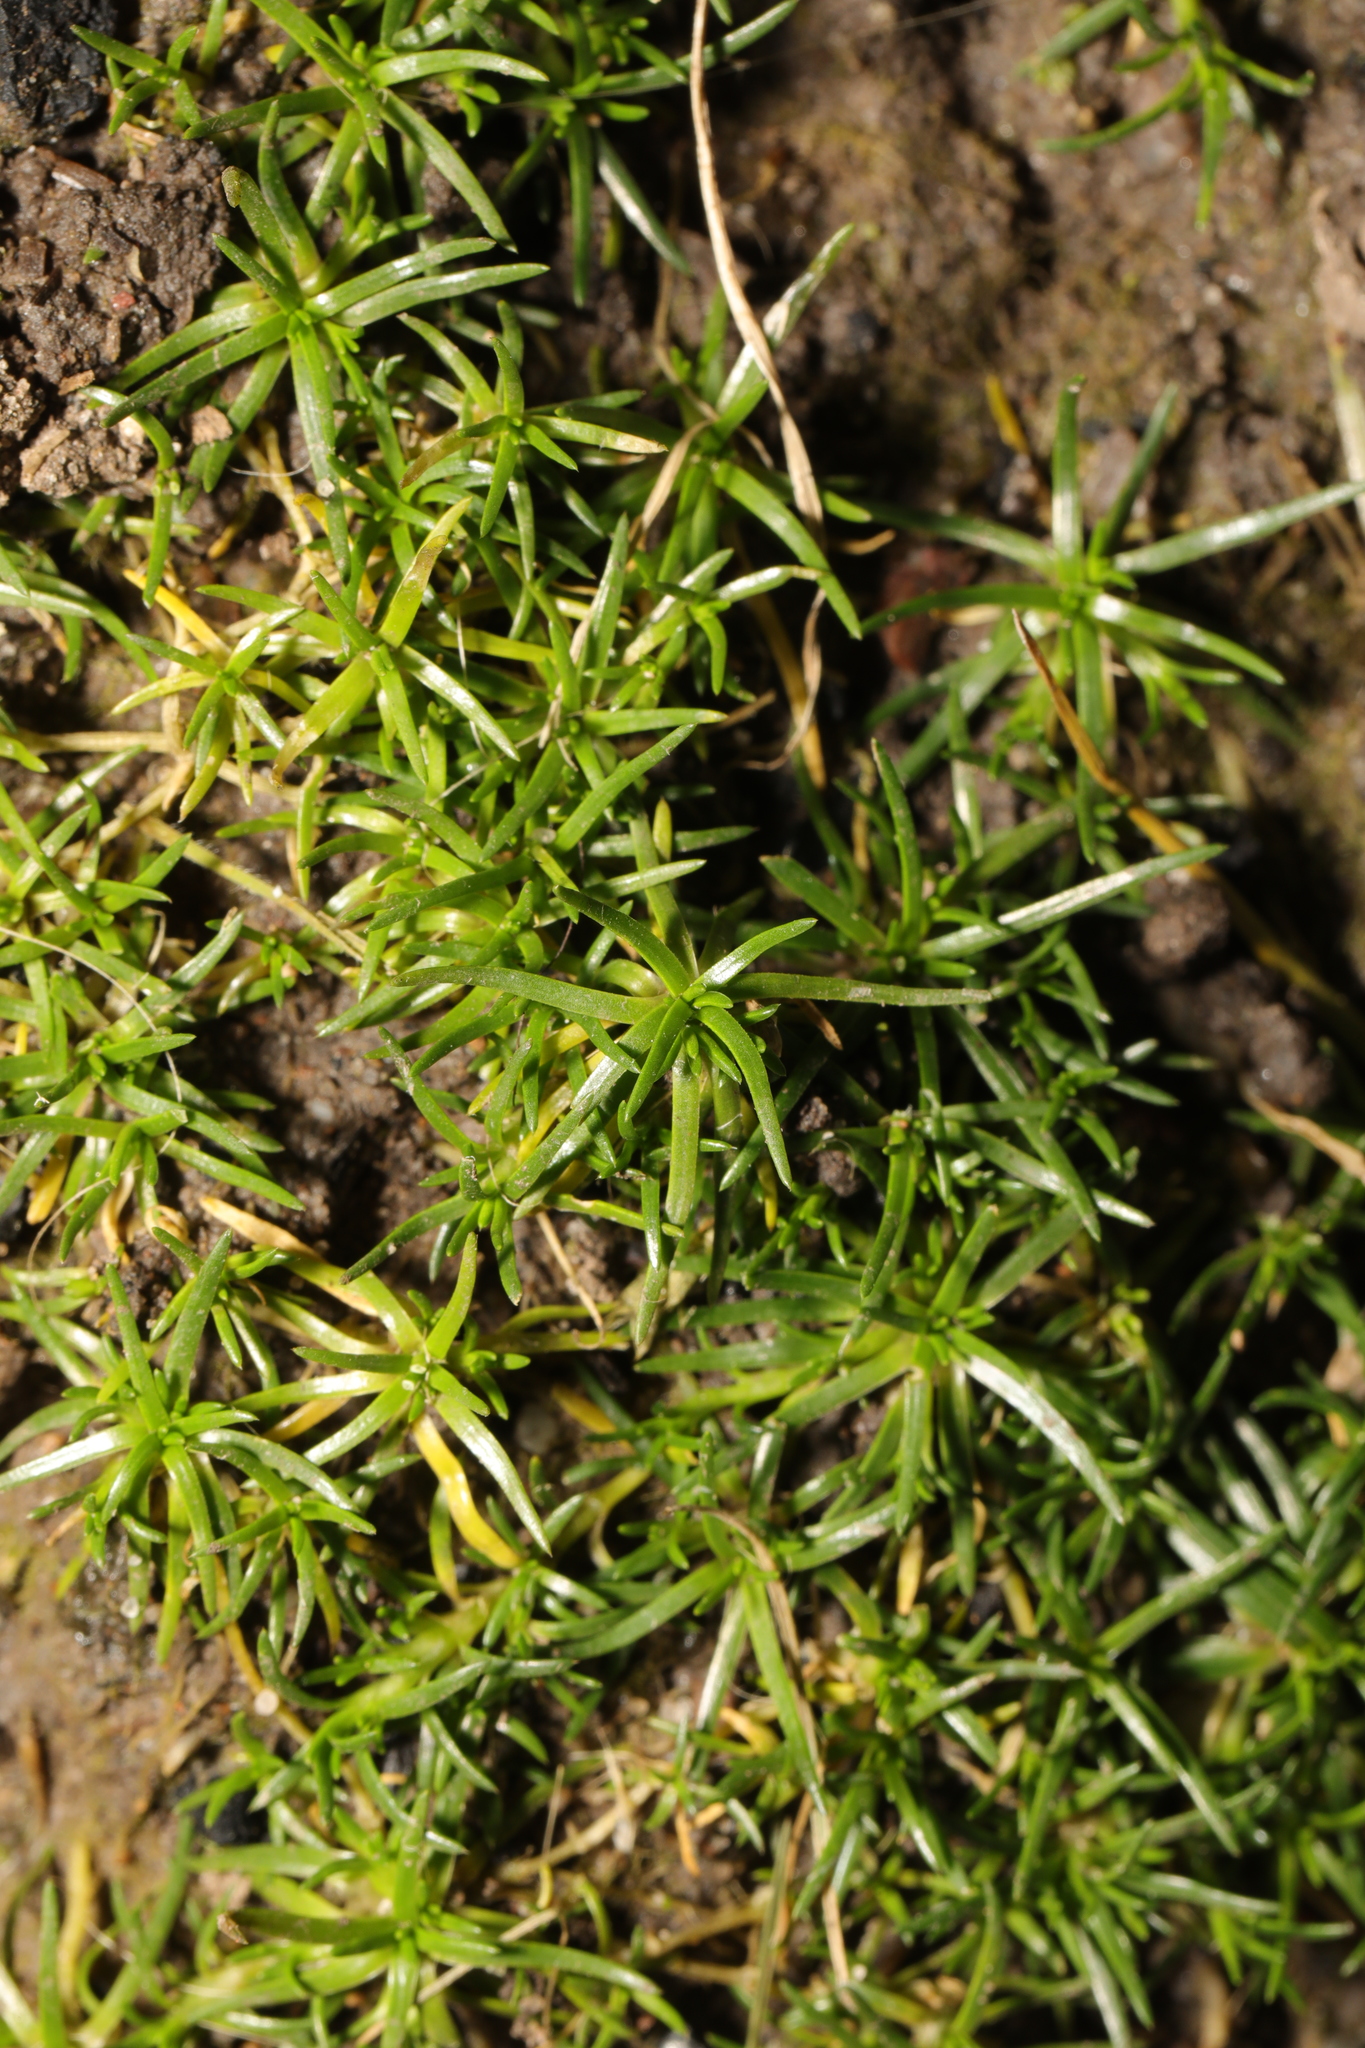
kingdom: Plantae
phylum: Tracheophyta
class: Magnoliopsida
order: Caryophyllales
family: Caryophyllaceae
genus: Sagina
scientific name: Sagina procumbens
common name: Procumbent pearlwort
